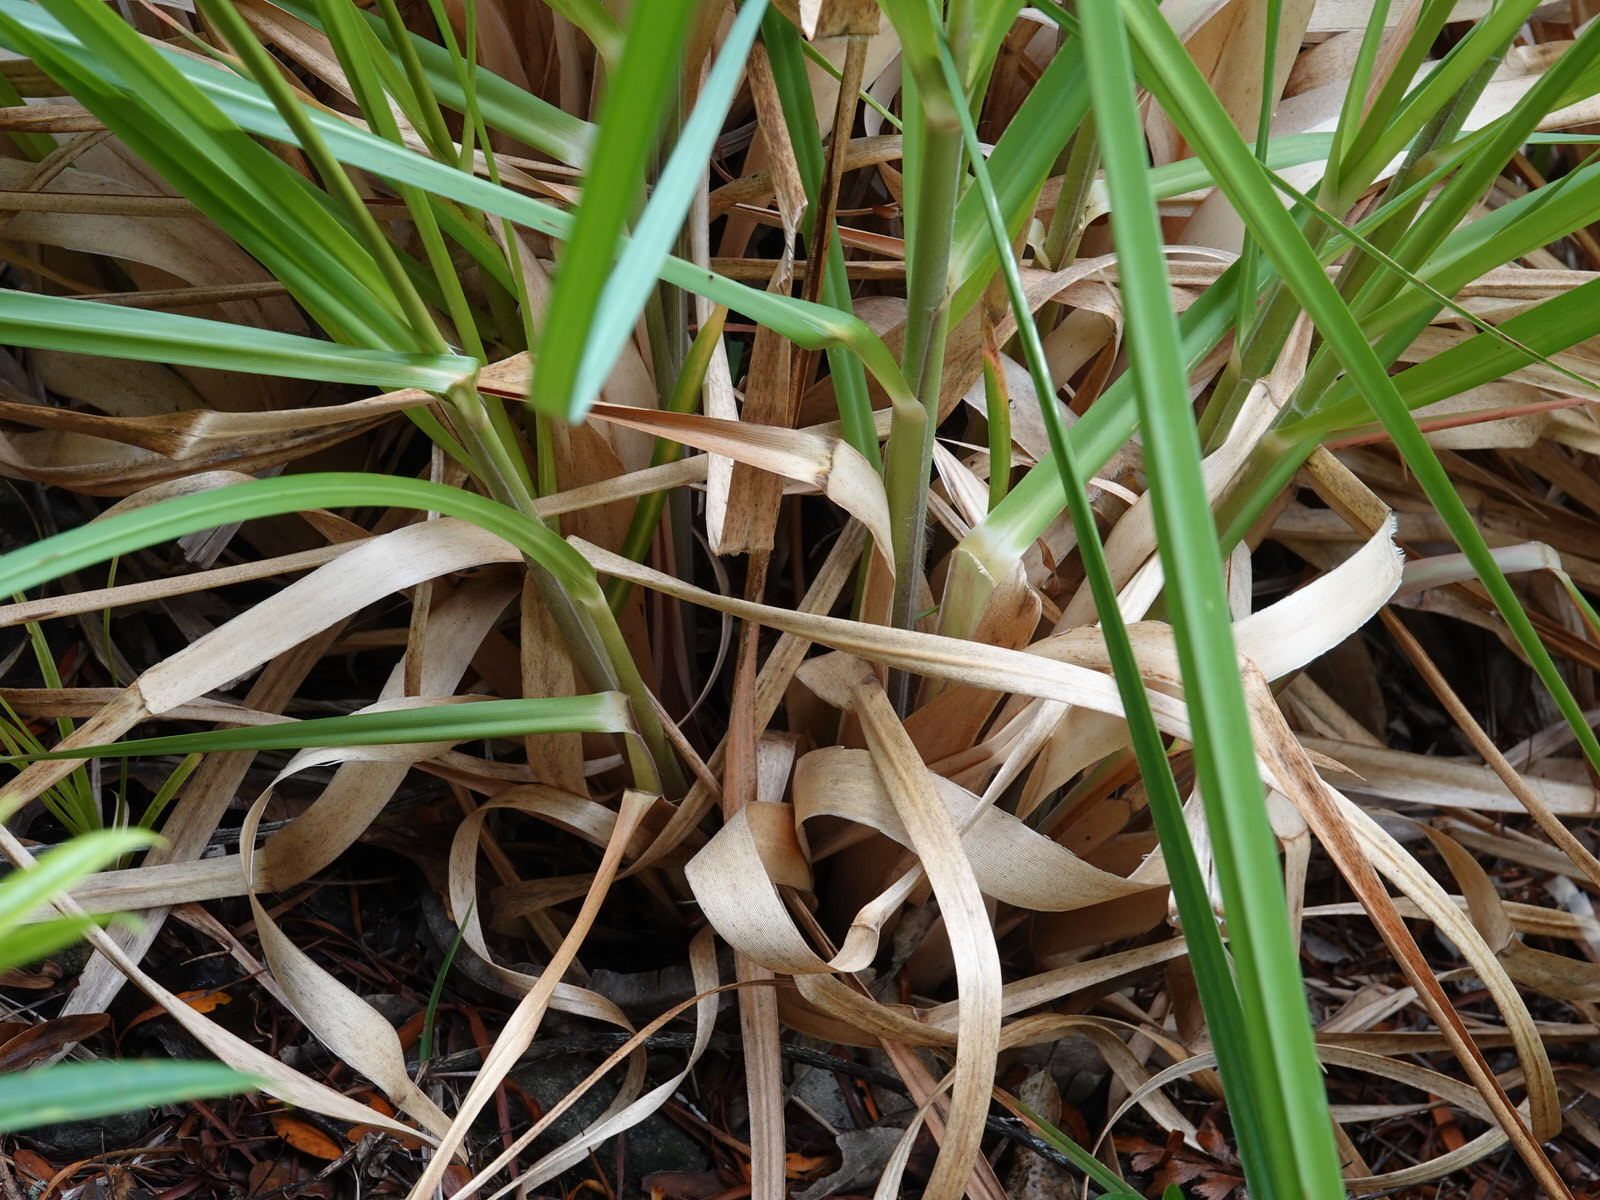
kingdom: Plantae
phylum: Tracheophyta
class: Liliopsida
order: Poales
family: Poaceae
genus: Cortaderia
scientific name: Cortaderia jubata
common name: Purple pampas grass
